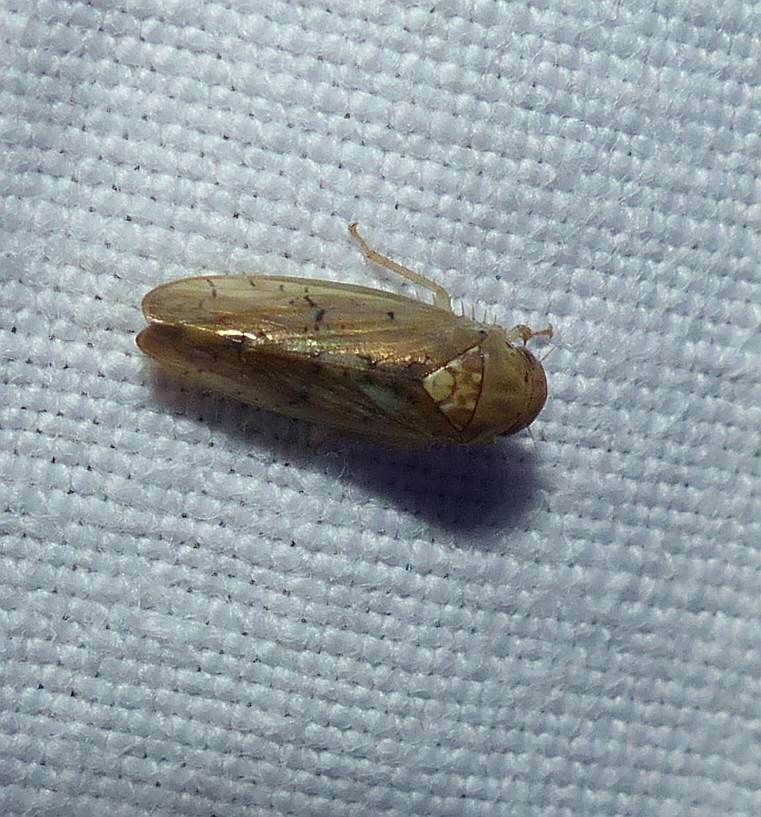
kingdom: Animalia
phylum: Arthropoda
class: Insecta
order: Hemiptera
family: Cicadellidae
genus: Ponana
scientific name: Ponana quadralaba
